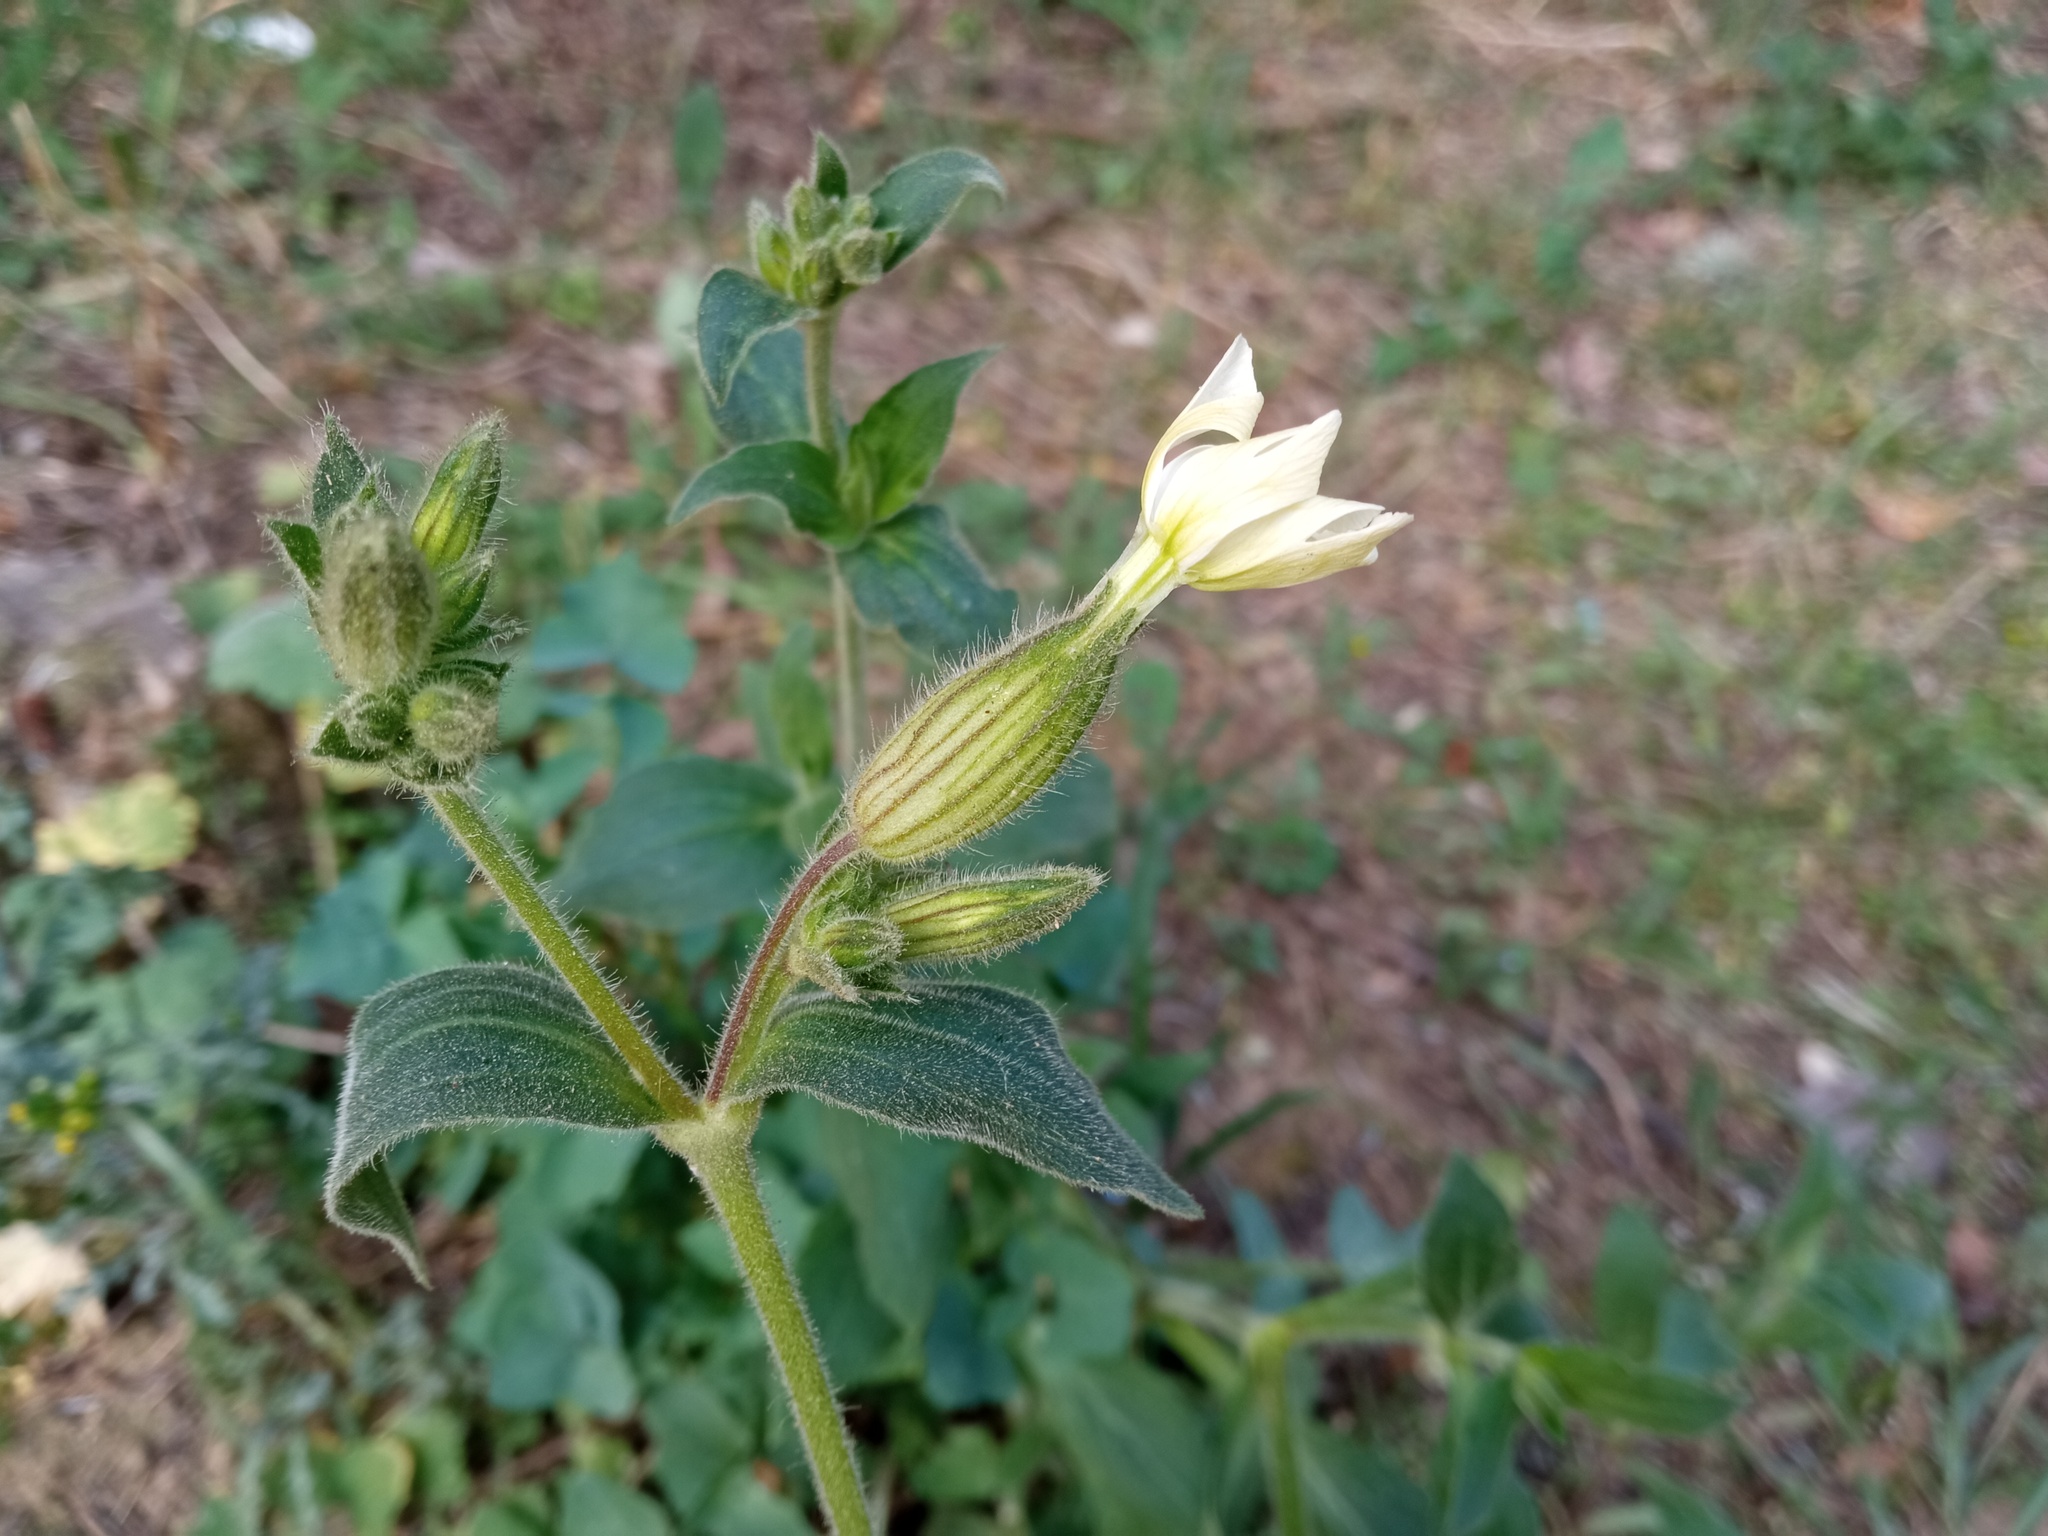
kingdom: Plantae
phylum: Tracheophyta
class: Magnoliopsida
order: Caryophyllales
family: Caryophyllaceae
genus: Silene
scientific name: Silene latifolia
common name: White campion
